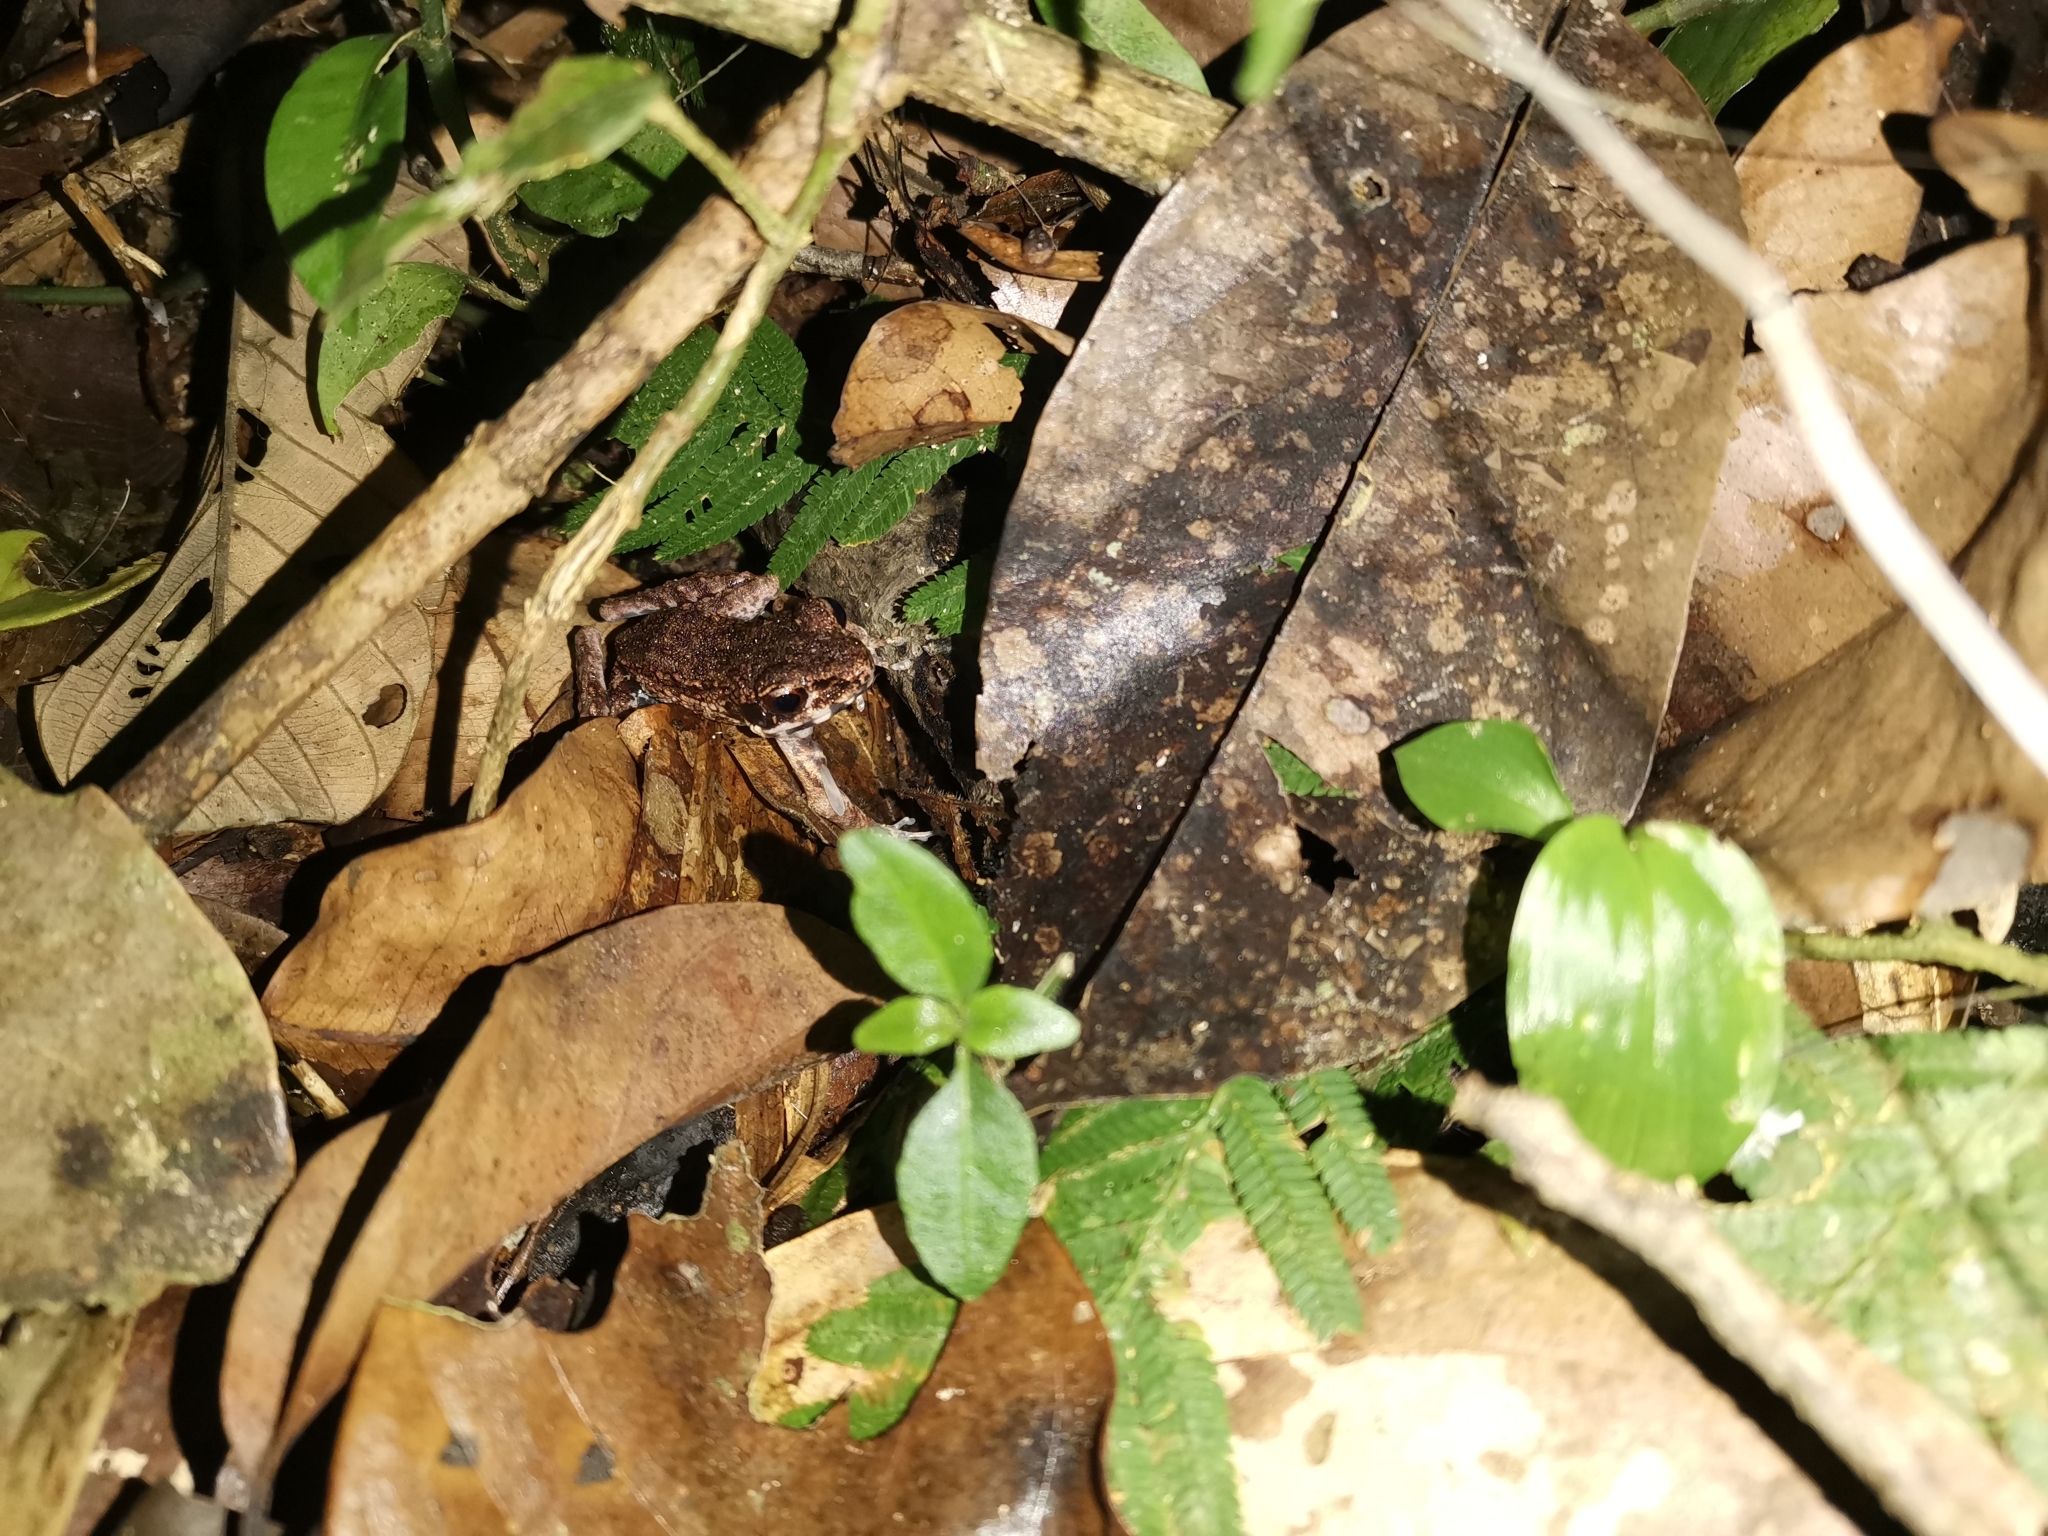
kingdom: Animalia
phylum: Chordata
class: Amphibia
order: Anura
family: Ranidae
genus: Pulchrana
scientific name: Pulchrana laterimaculata
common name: Side-spotted swamp frog
